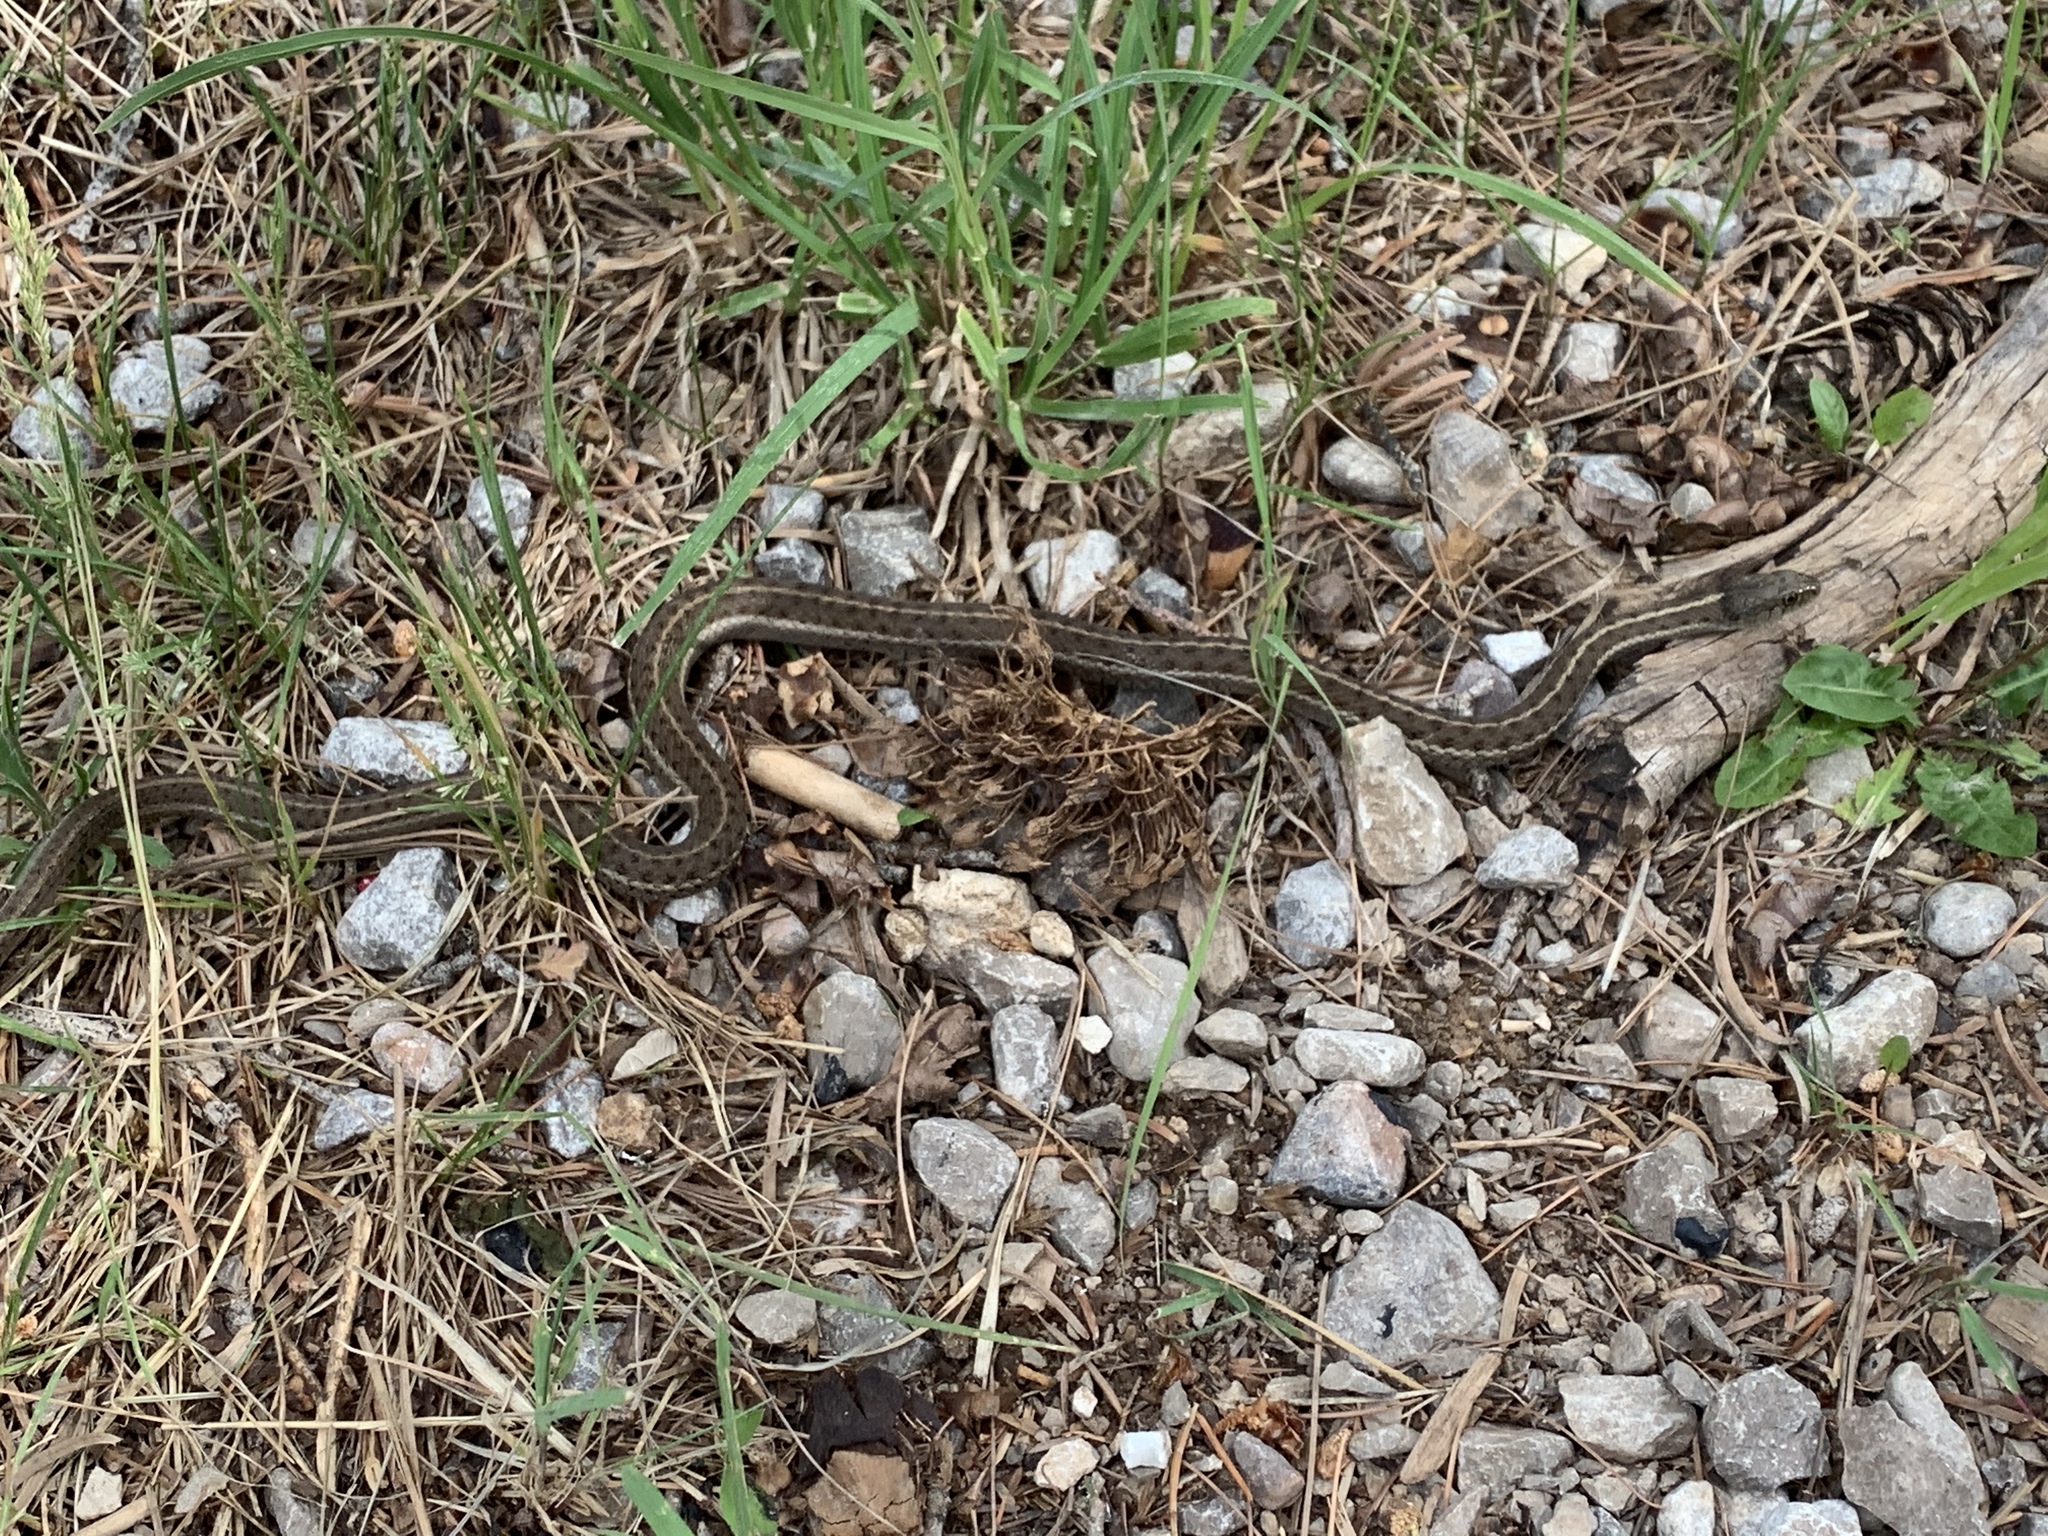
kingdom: Animalia
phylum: Chordata
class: Squamata
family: Colubridae
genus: Thamnophis
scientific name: Thamnophis elegans
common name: Western terrestrial garter snake
